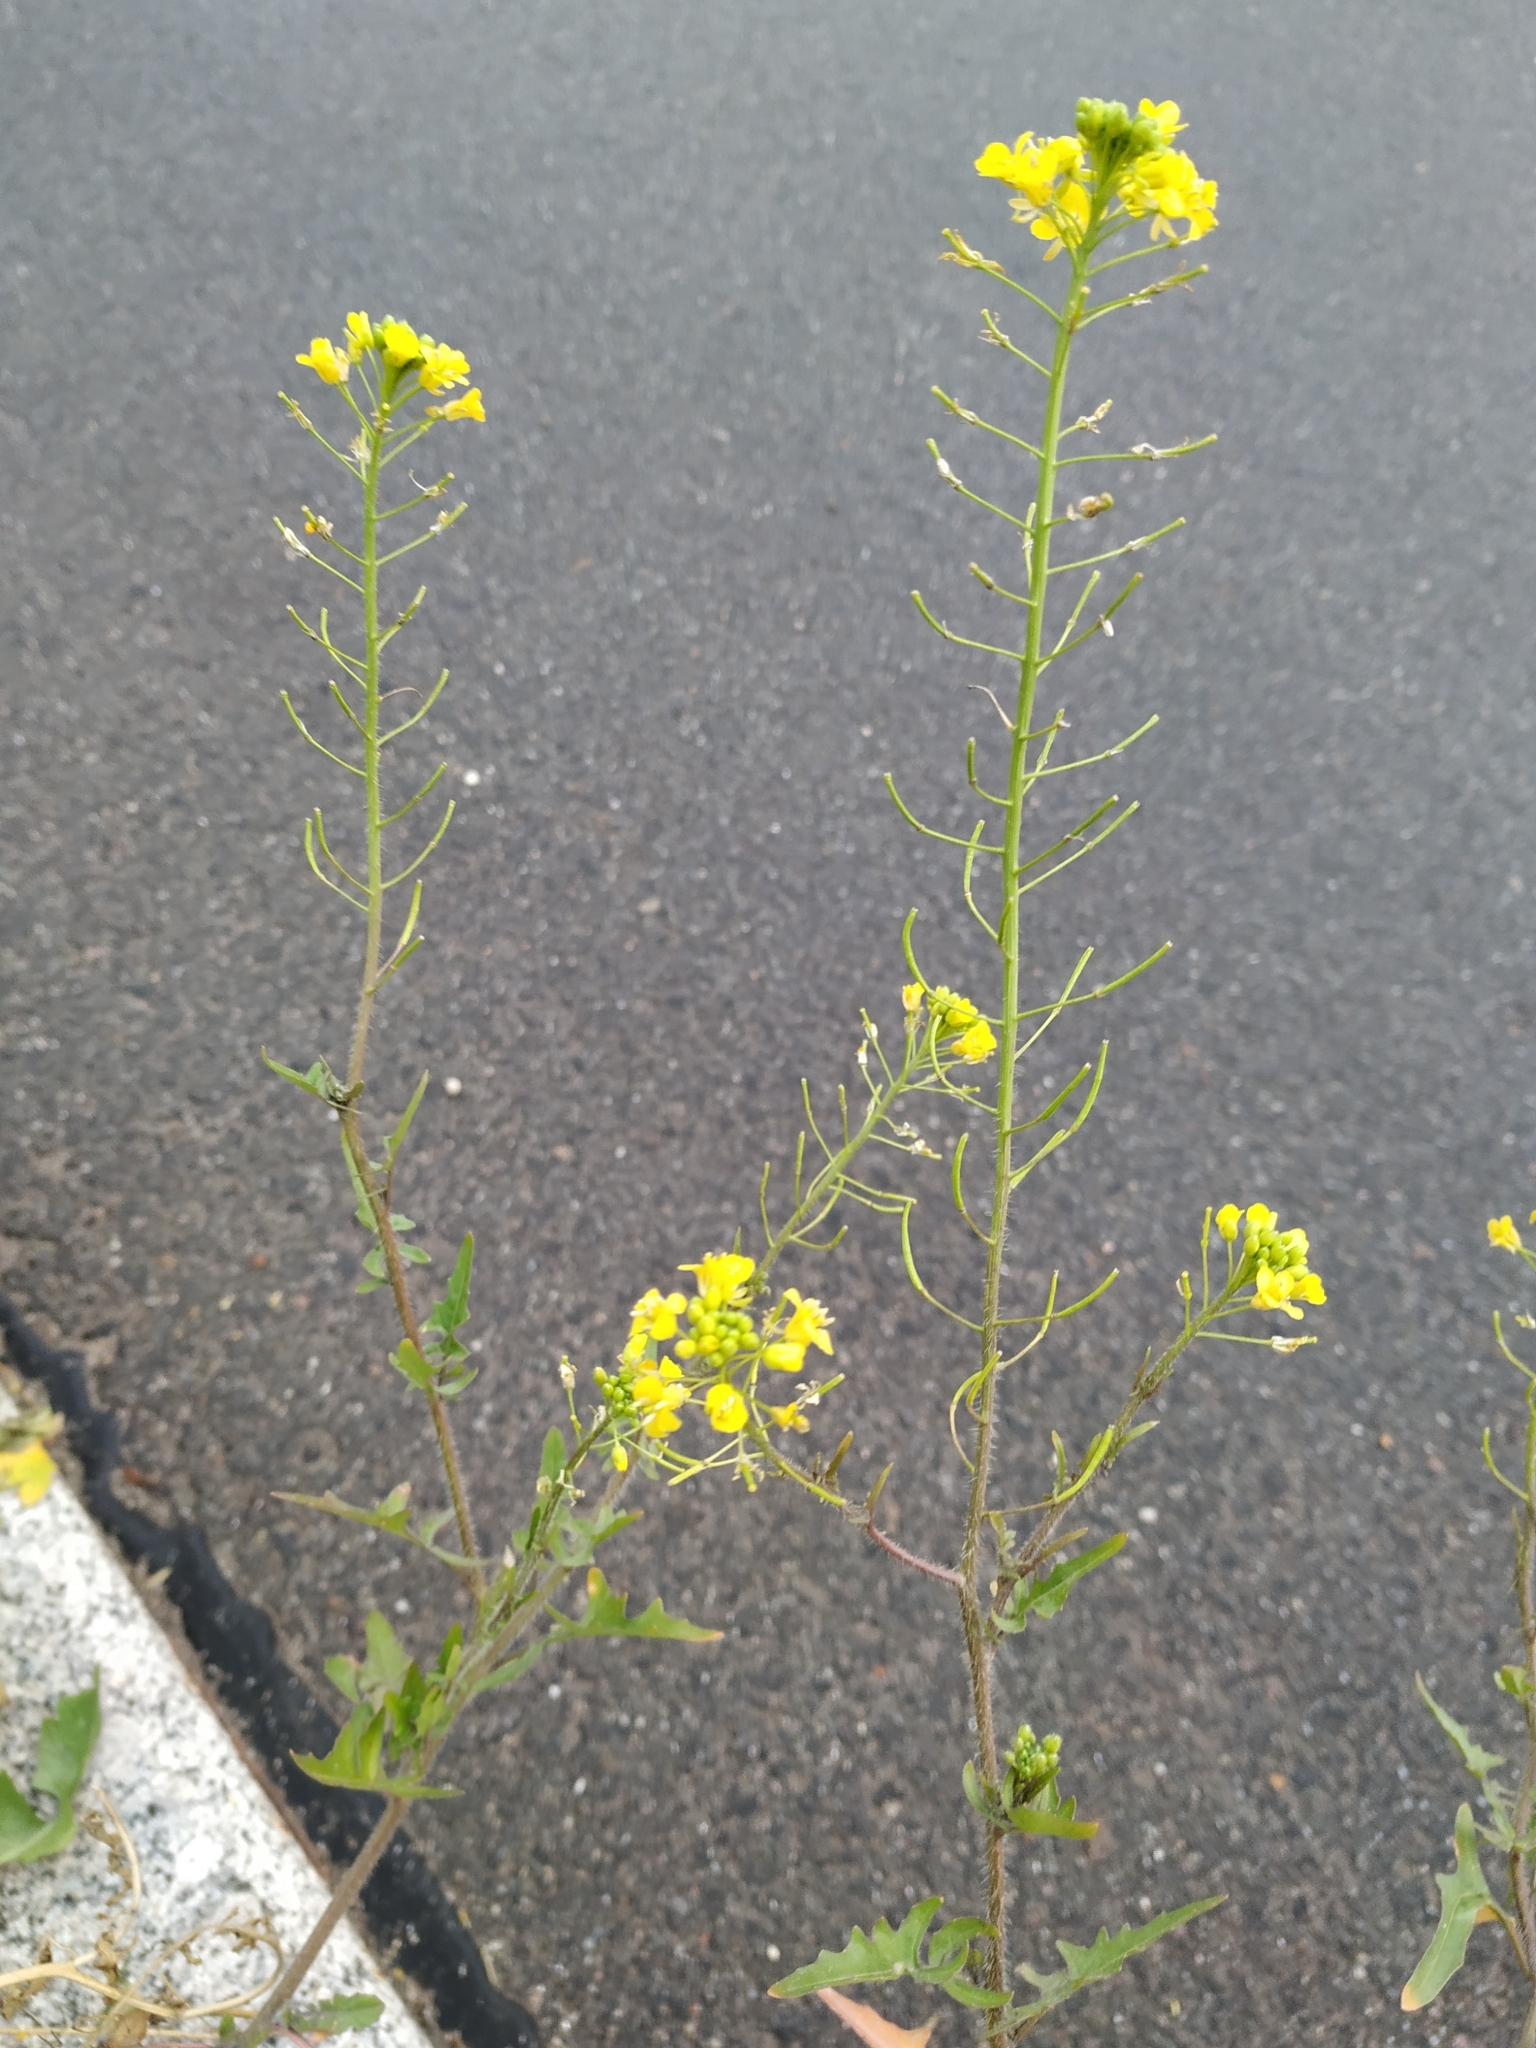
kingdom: Plantae
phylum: Tracheophyta
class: Magnoliopsida
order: Brassicales
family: Brassicaceae
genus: Sisymbrium
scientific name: Sisymbrium loeselii
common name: False london-rocket
